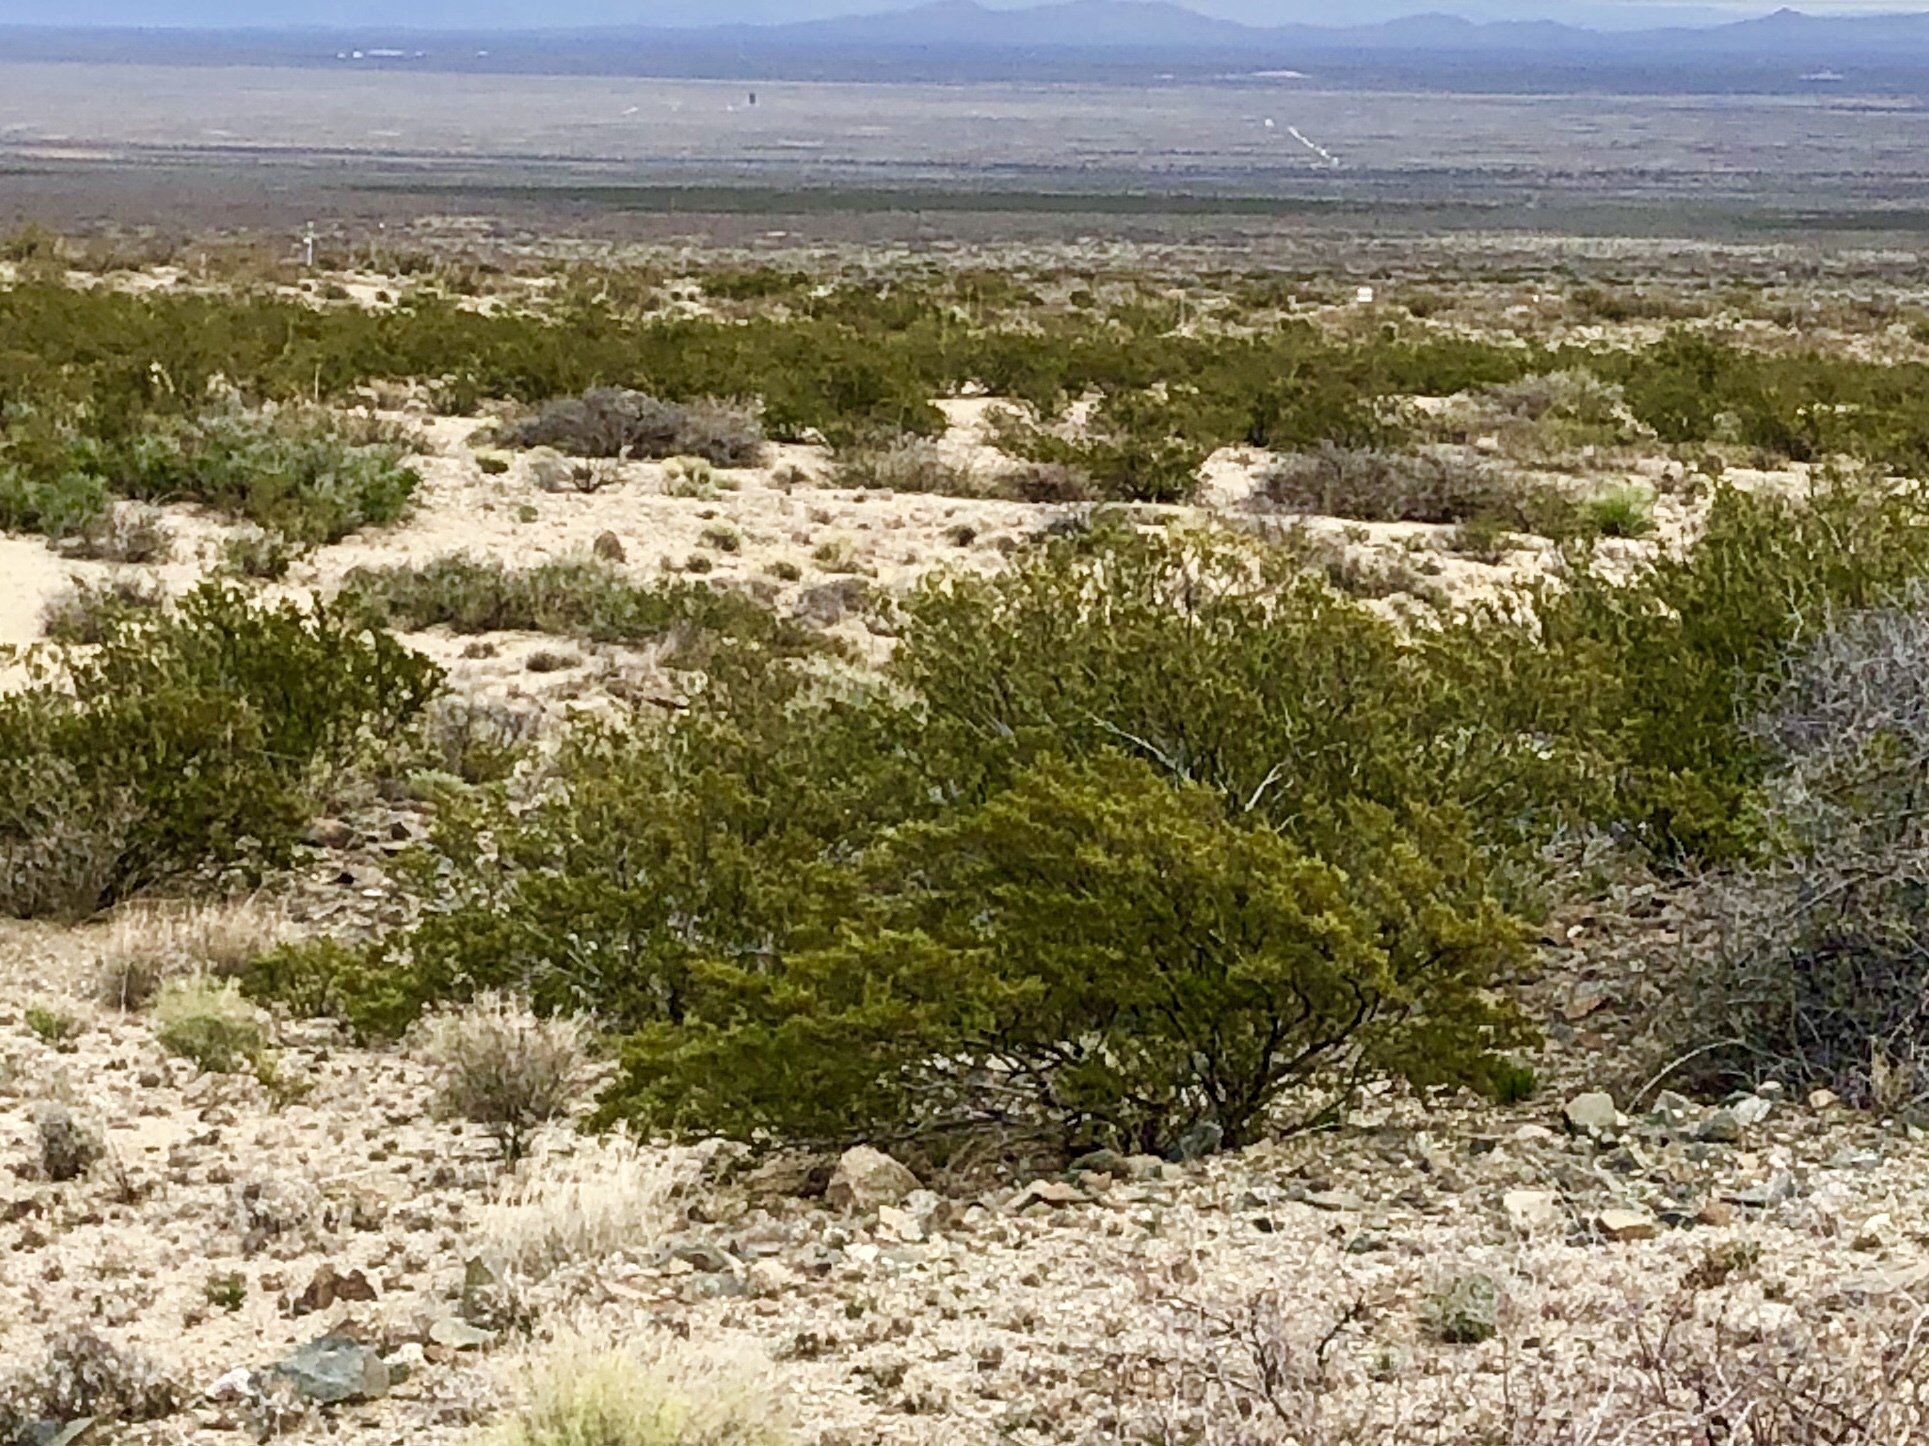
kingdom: Plantae
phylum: Tracheophyta
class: Magnoliopsida
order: Zygophyllales
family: Zygophyllaceae
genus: Larrea
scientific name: Larrea tridentata
